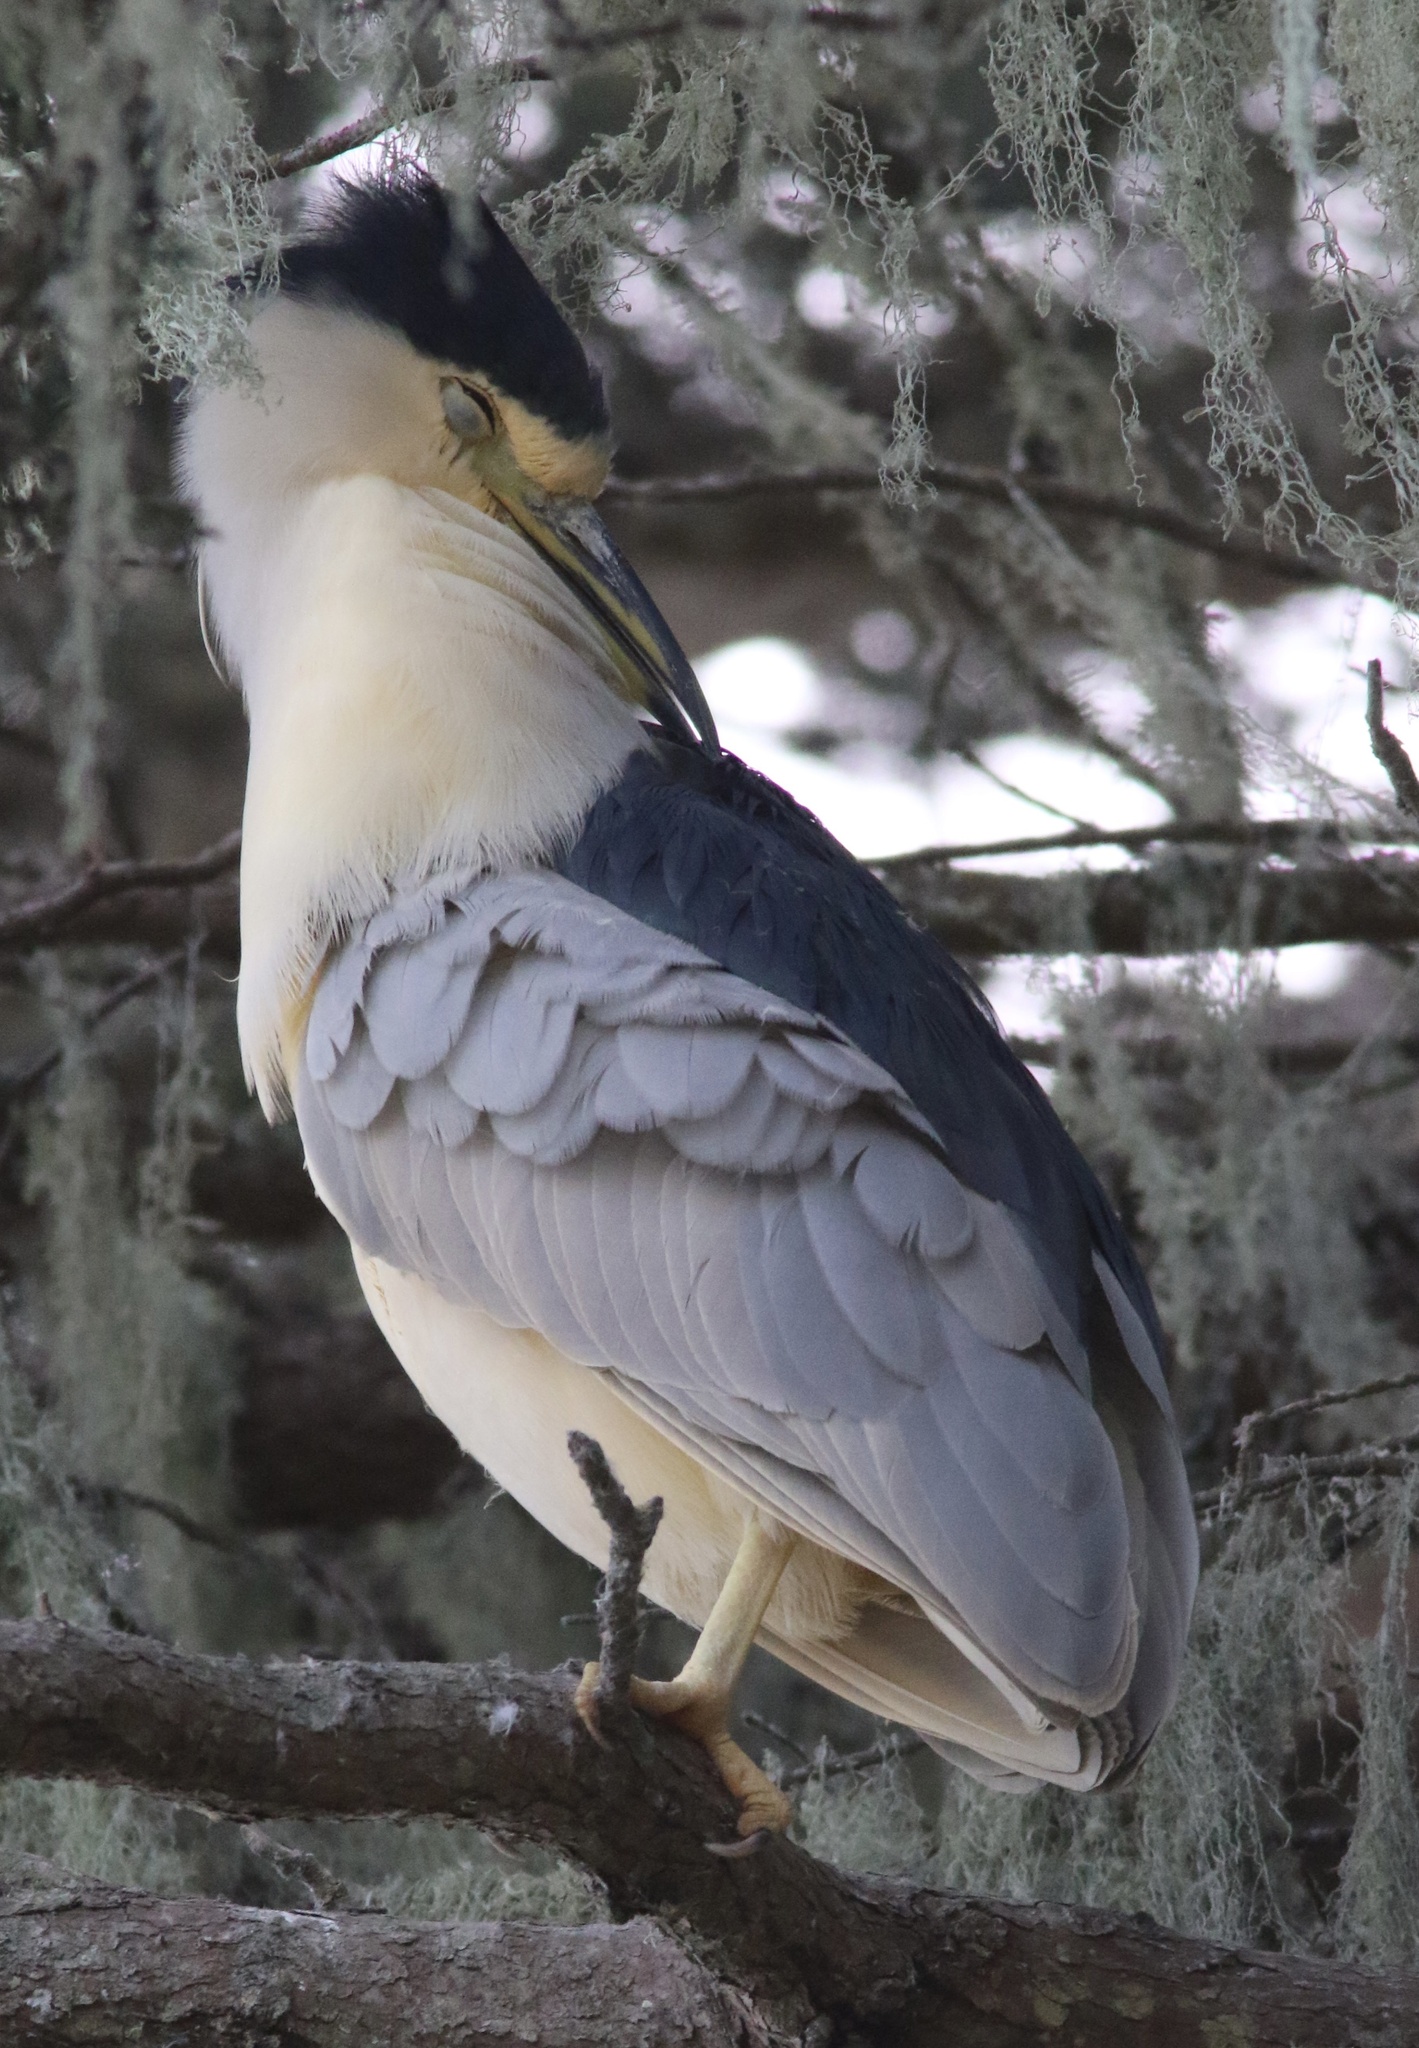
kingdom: Animalia
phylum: Chordata
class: Aves
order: Pelecaniformes
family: Ardeidae
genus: Nycticorax
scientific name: Nycticorax nycticorax
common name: Black-crowned night heron
